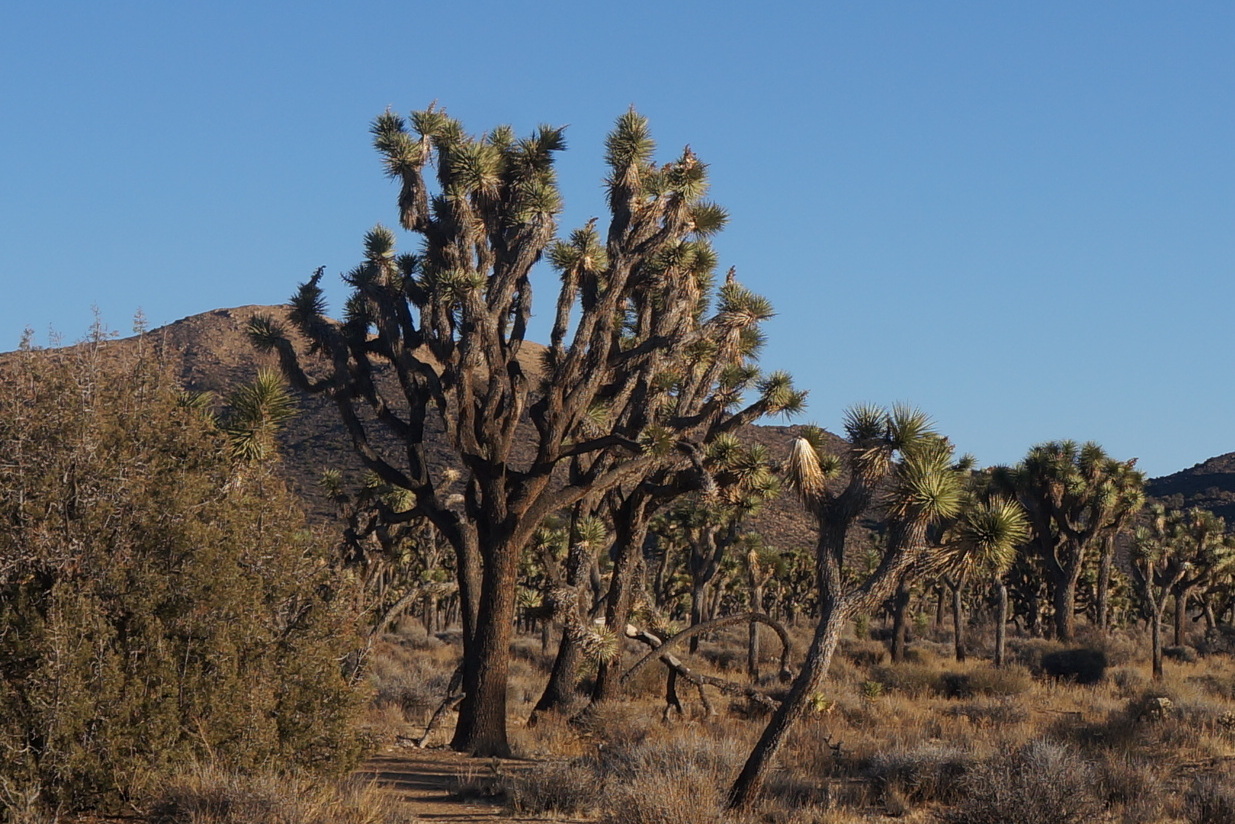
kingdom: Plantae
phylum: Tracheophyta
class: Liliopsida
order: Asparagales
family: Asparagaceae
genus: Yucca
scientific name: Yucca brevifolia
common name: Joshua tree
